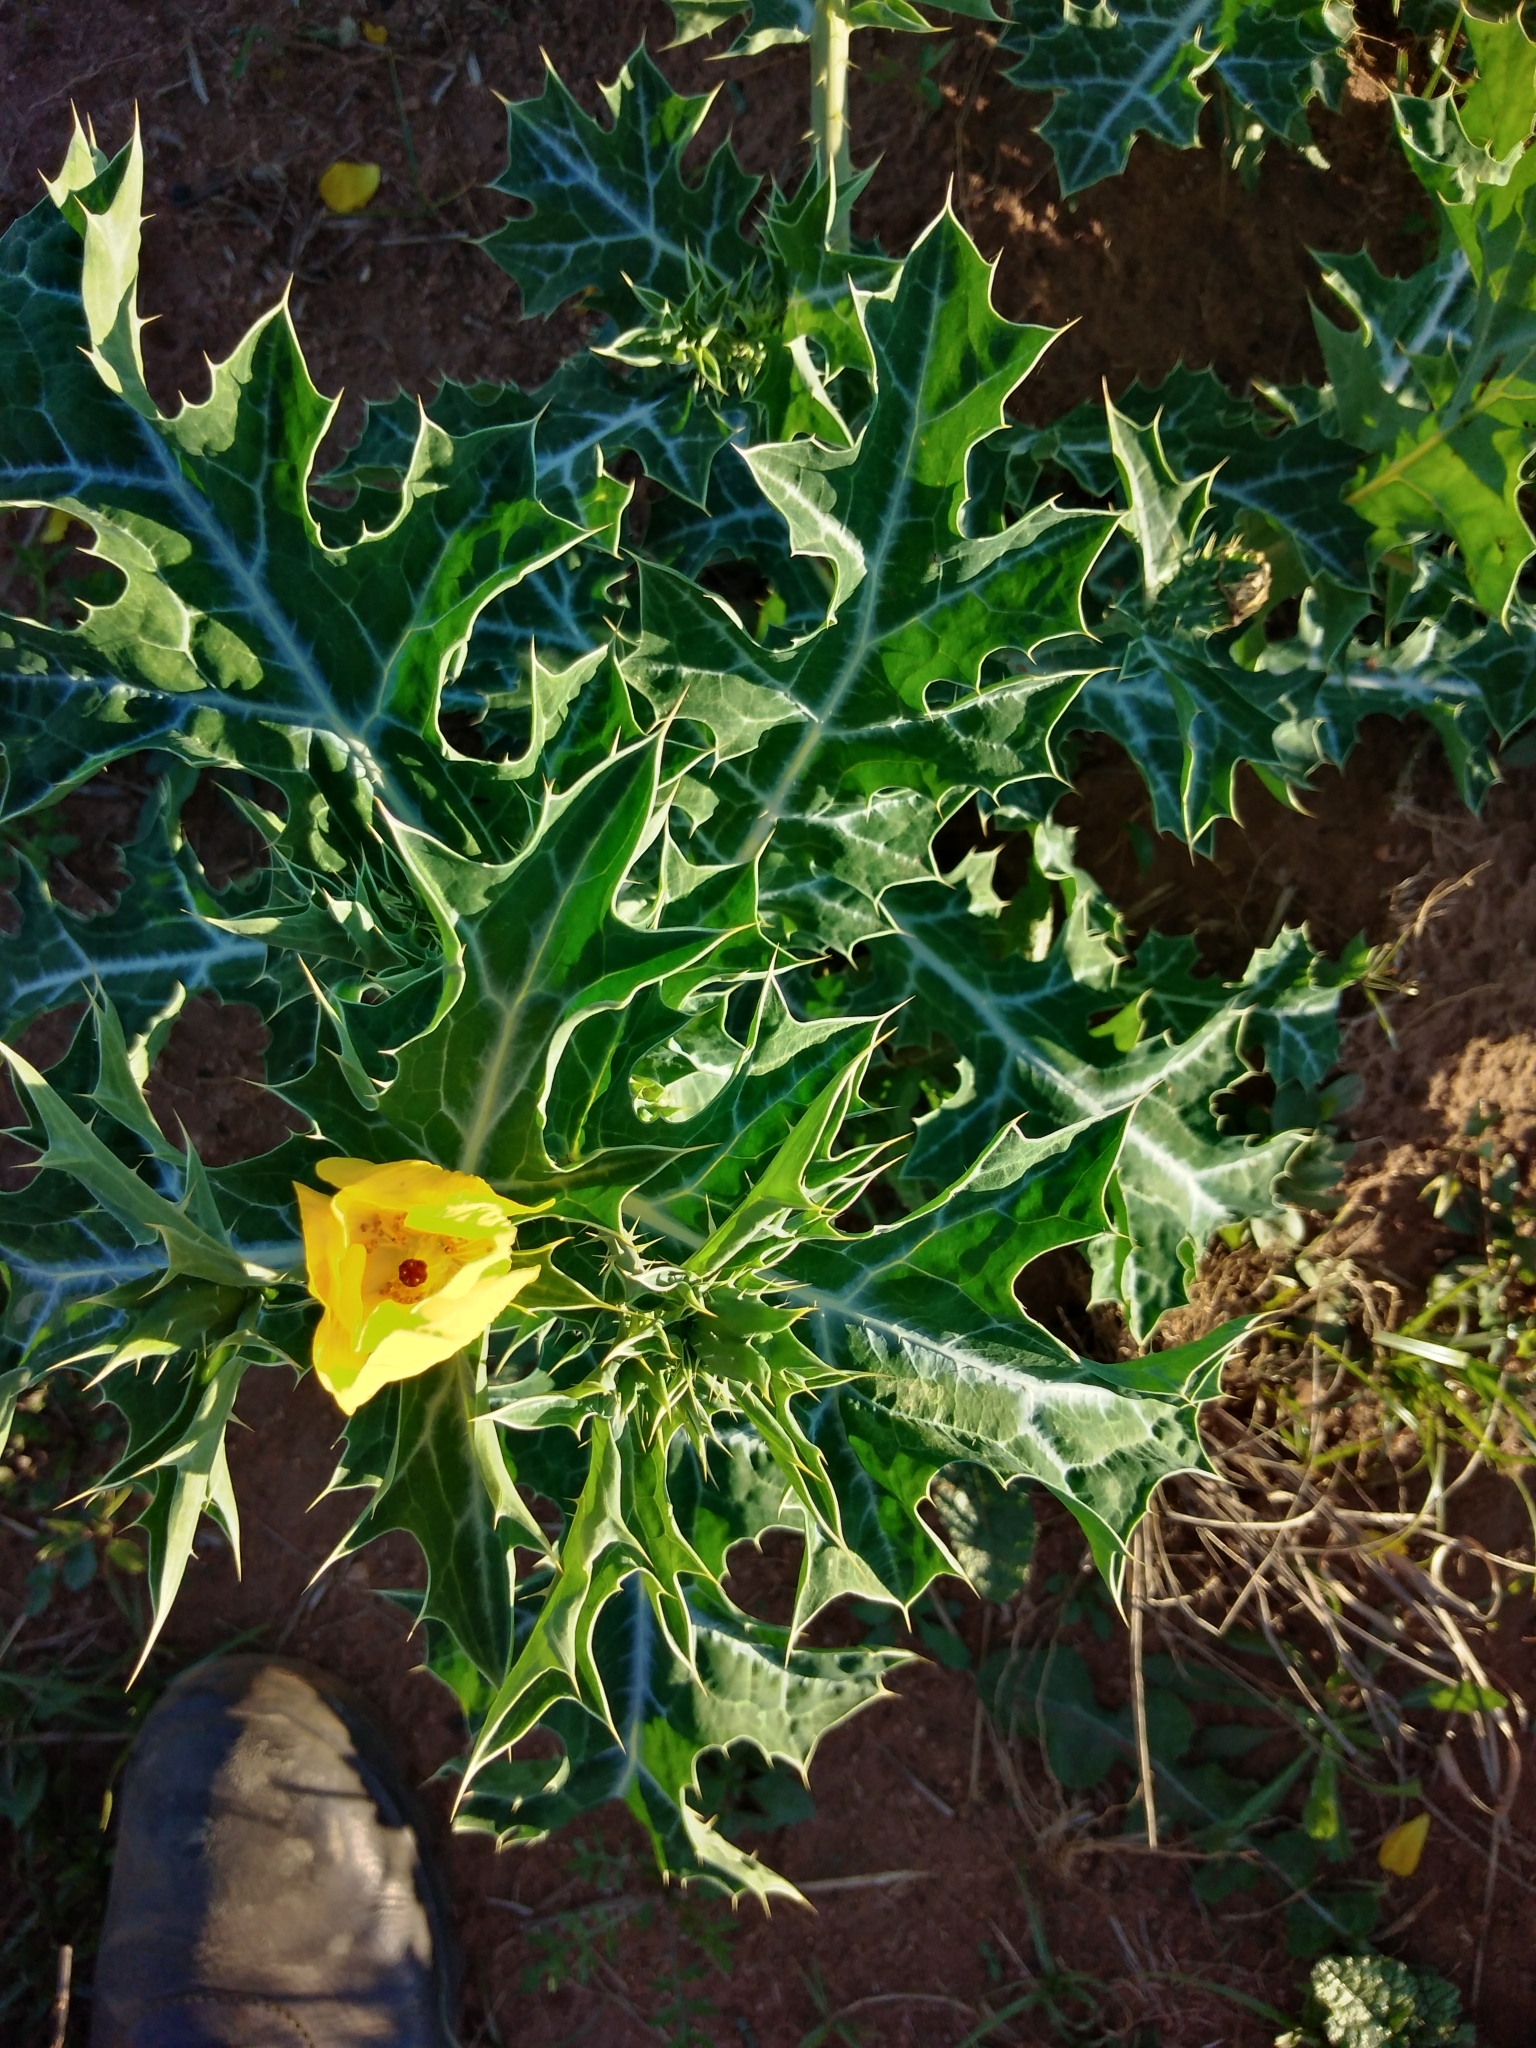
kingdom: Plantae
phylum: Tracheophyta
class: Magnoliopsida
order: Ranunculales
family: Papaveraceae
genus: Argemone
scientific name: Argemone mexicana
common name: Mexican poppy
